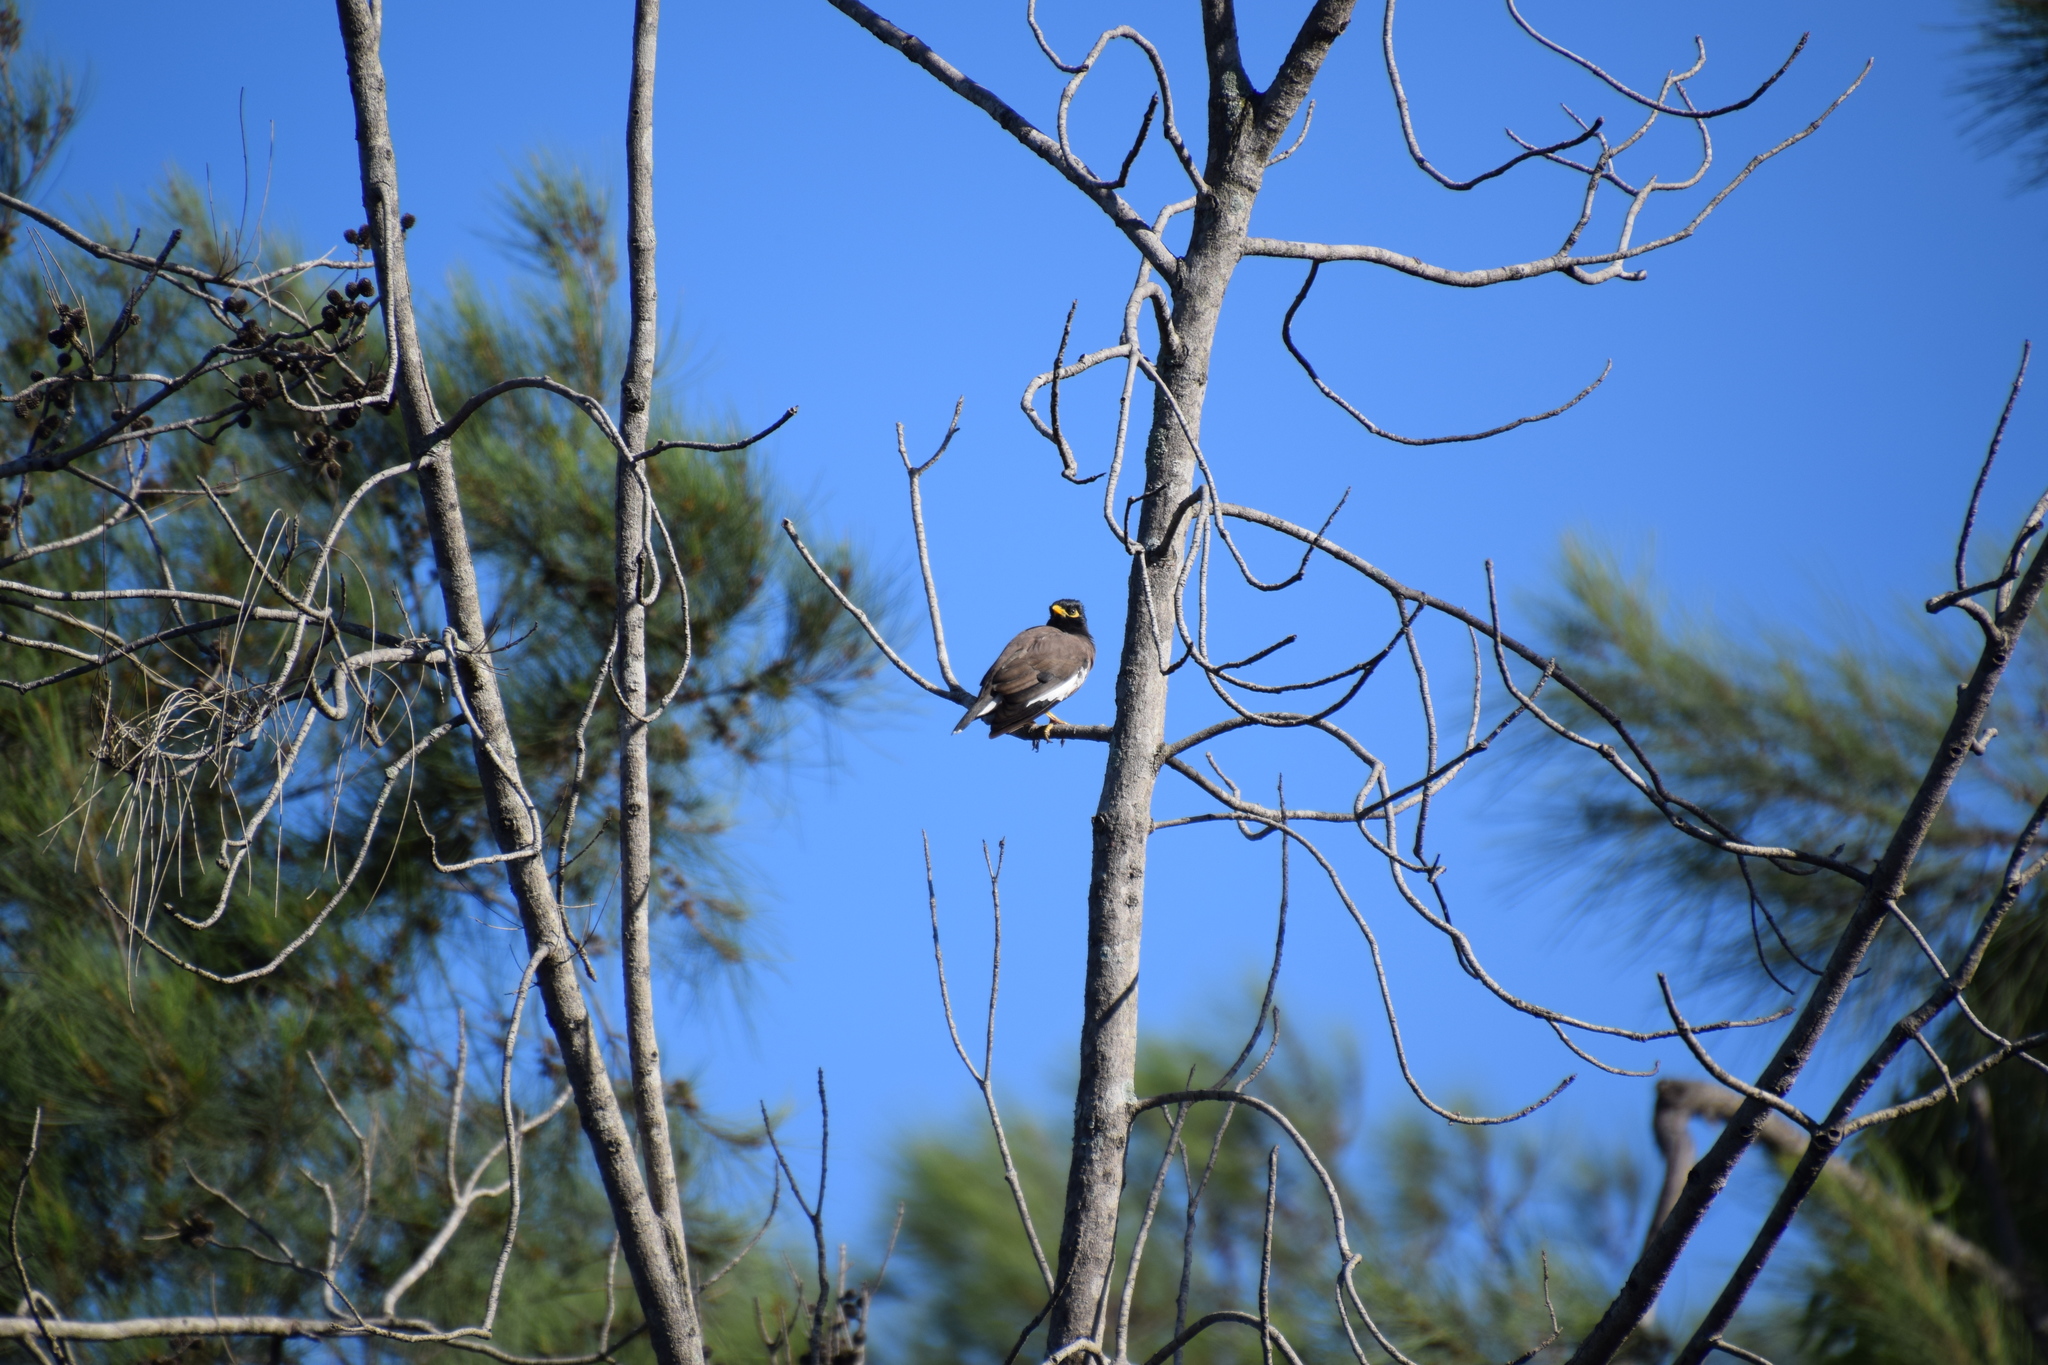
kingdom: Animalia
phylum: Chordata
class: Aves
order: Passeriformes
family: Sturnidae
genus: Acridotheres
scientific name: Acridotheres tristis
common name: Common myna
